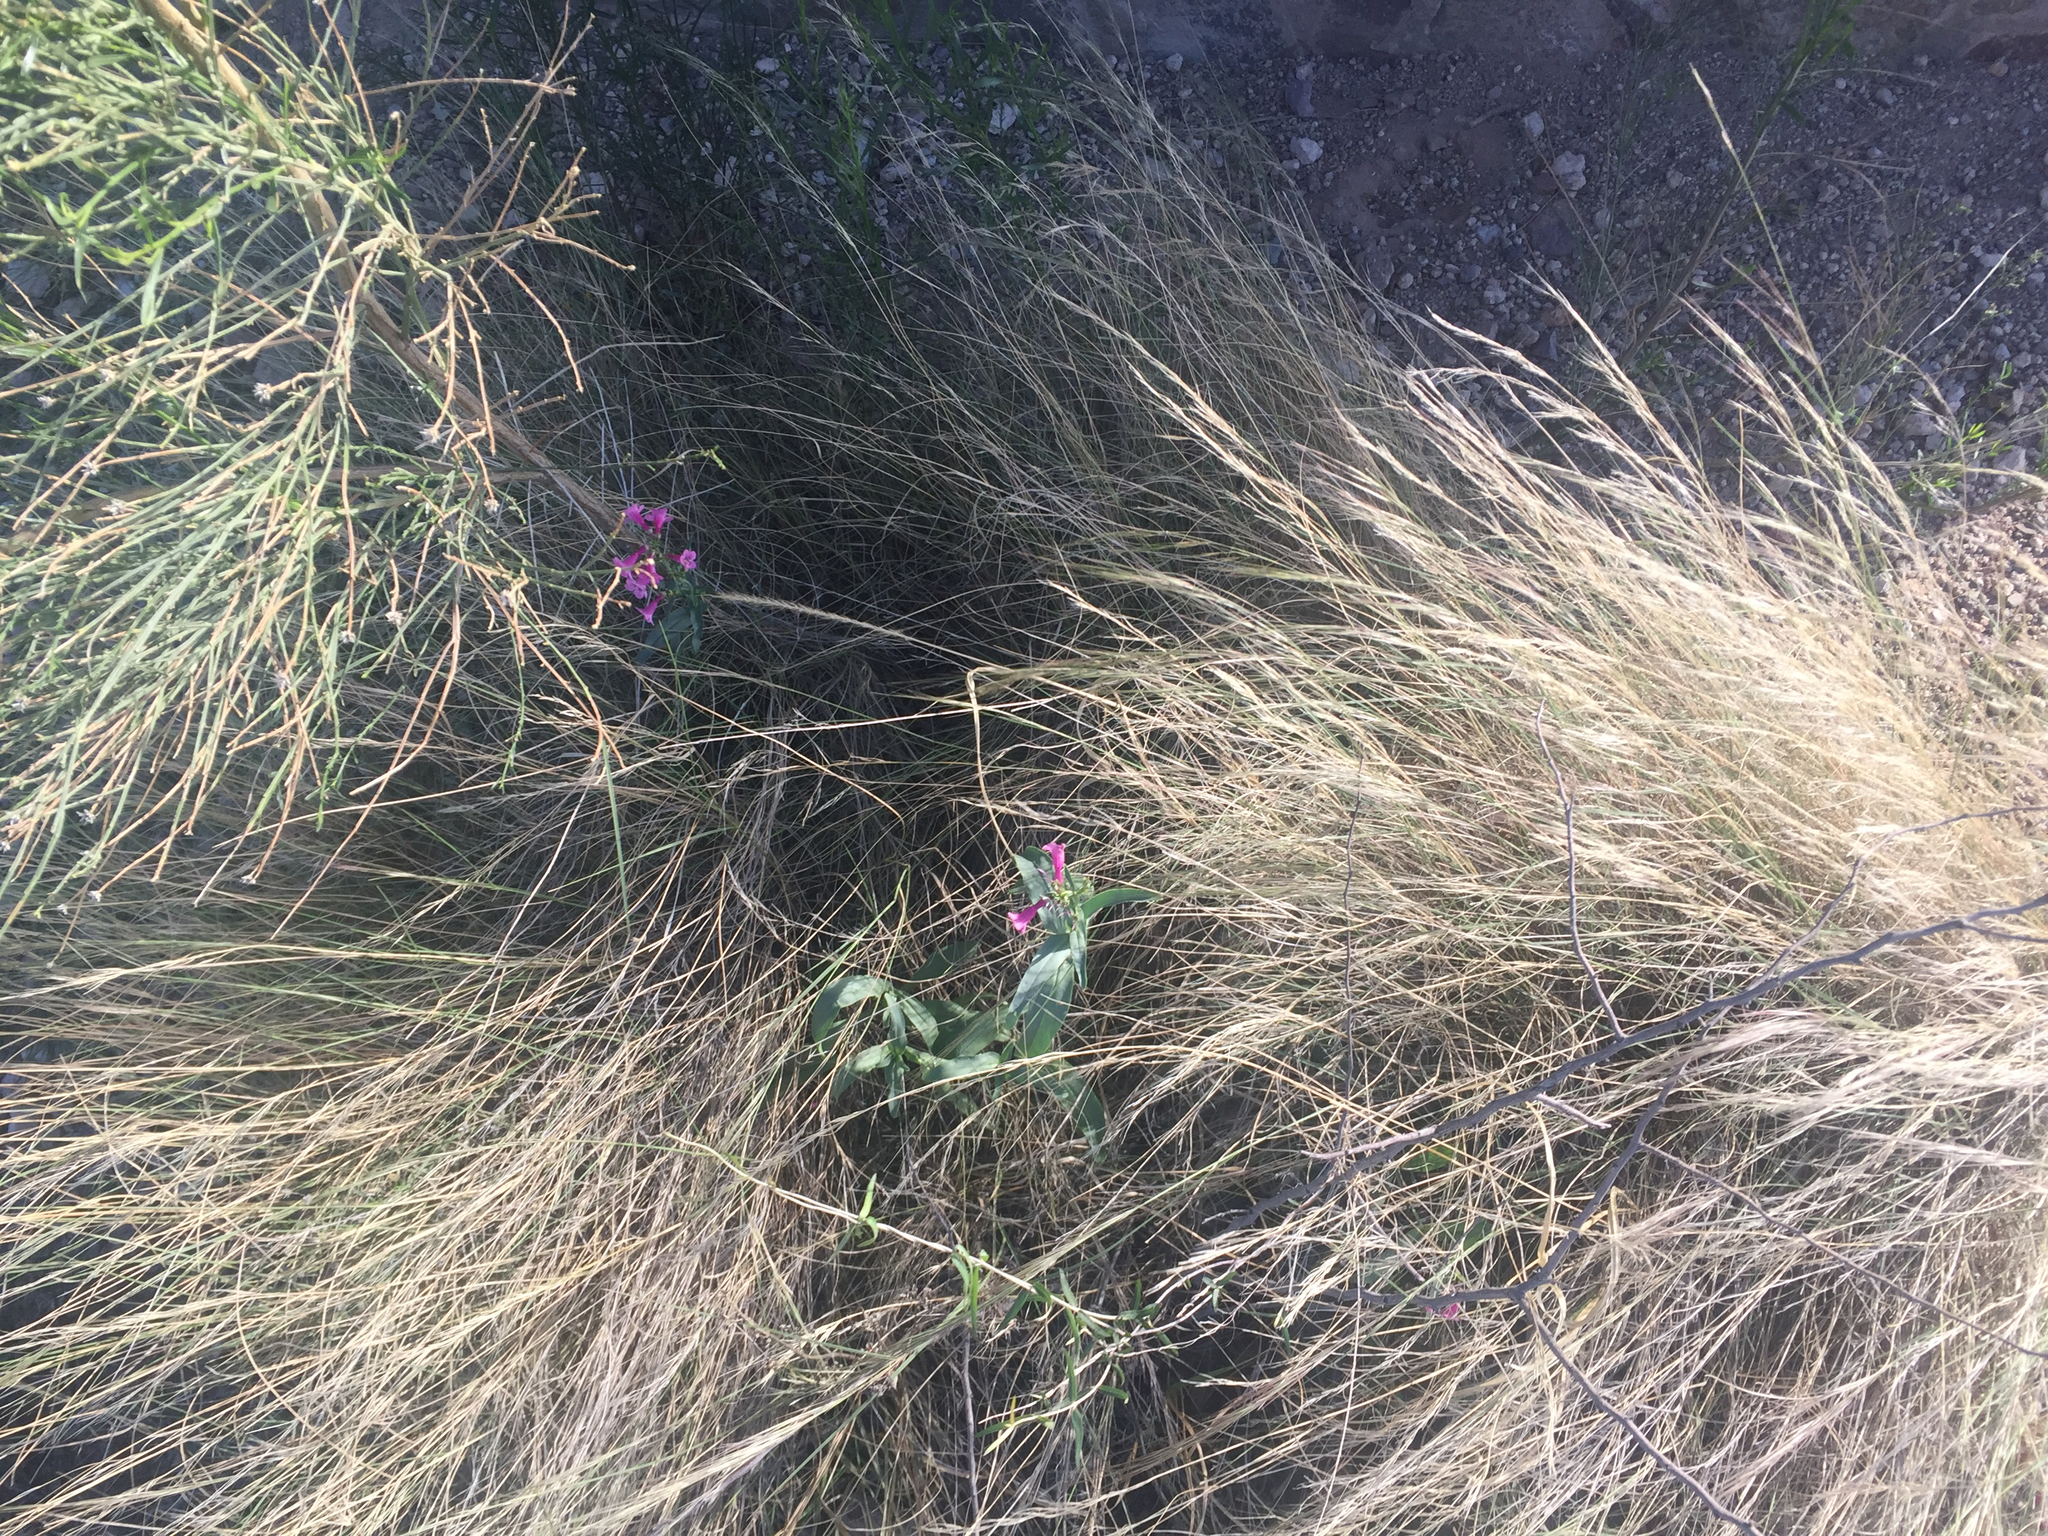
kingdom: Plantae
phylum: Tracheophyta
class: Magnoliopsida
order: Lamiales
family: Plantaginaceae
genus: Penstemon
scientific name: Penstemon parryi
